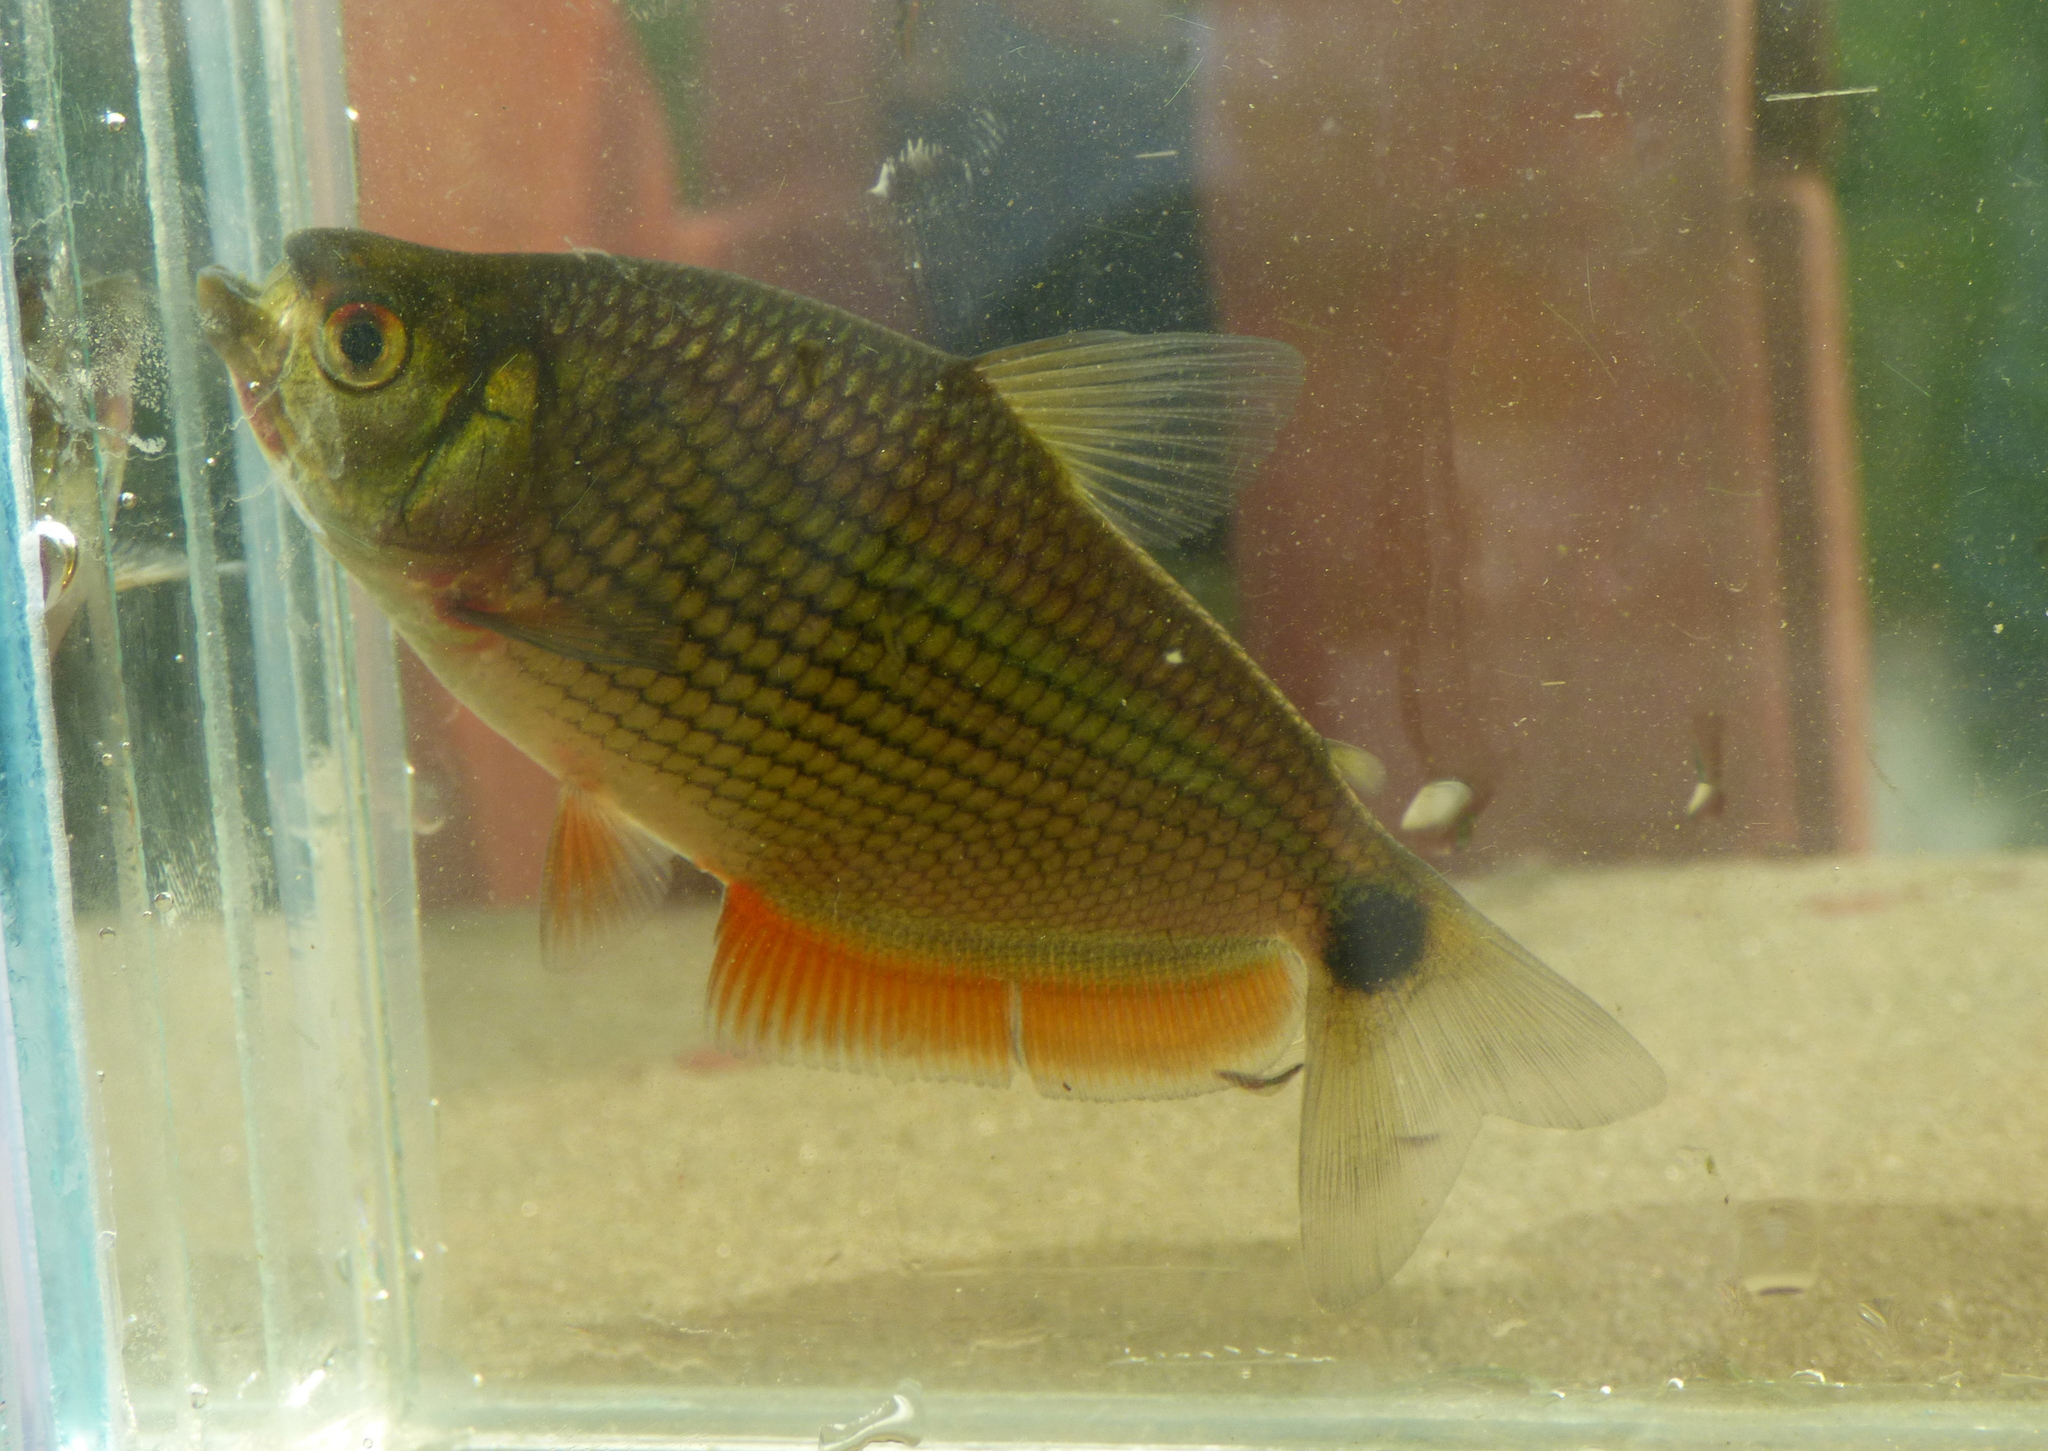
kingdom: Animalia
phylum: Chordata
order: Characiformes
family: Characidae
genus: Markiana
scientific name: Markiana nigripinnis
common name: Tetra
